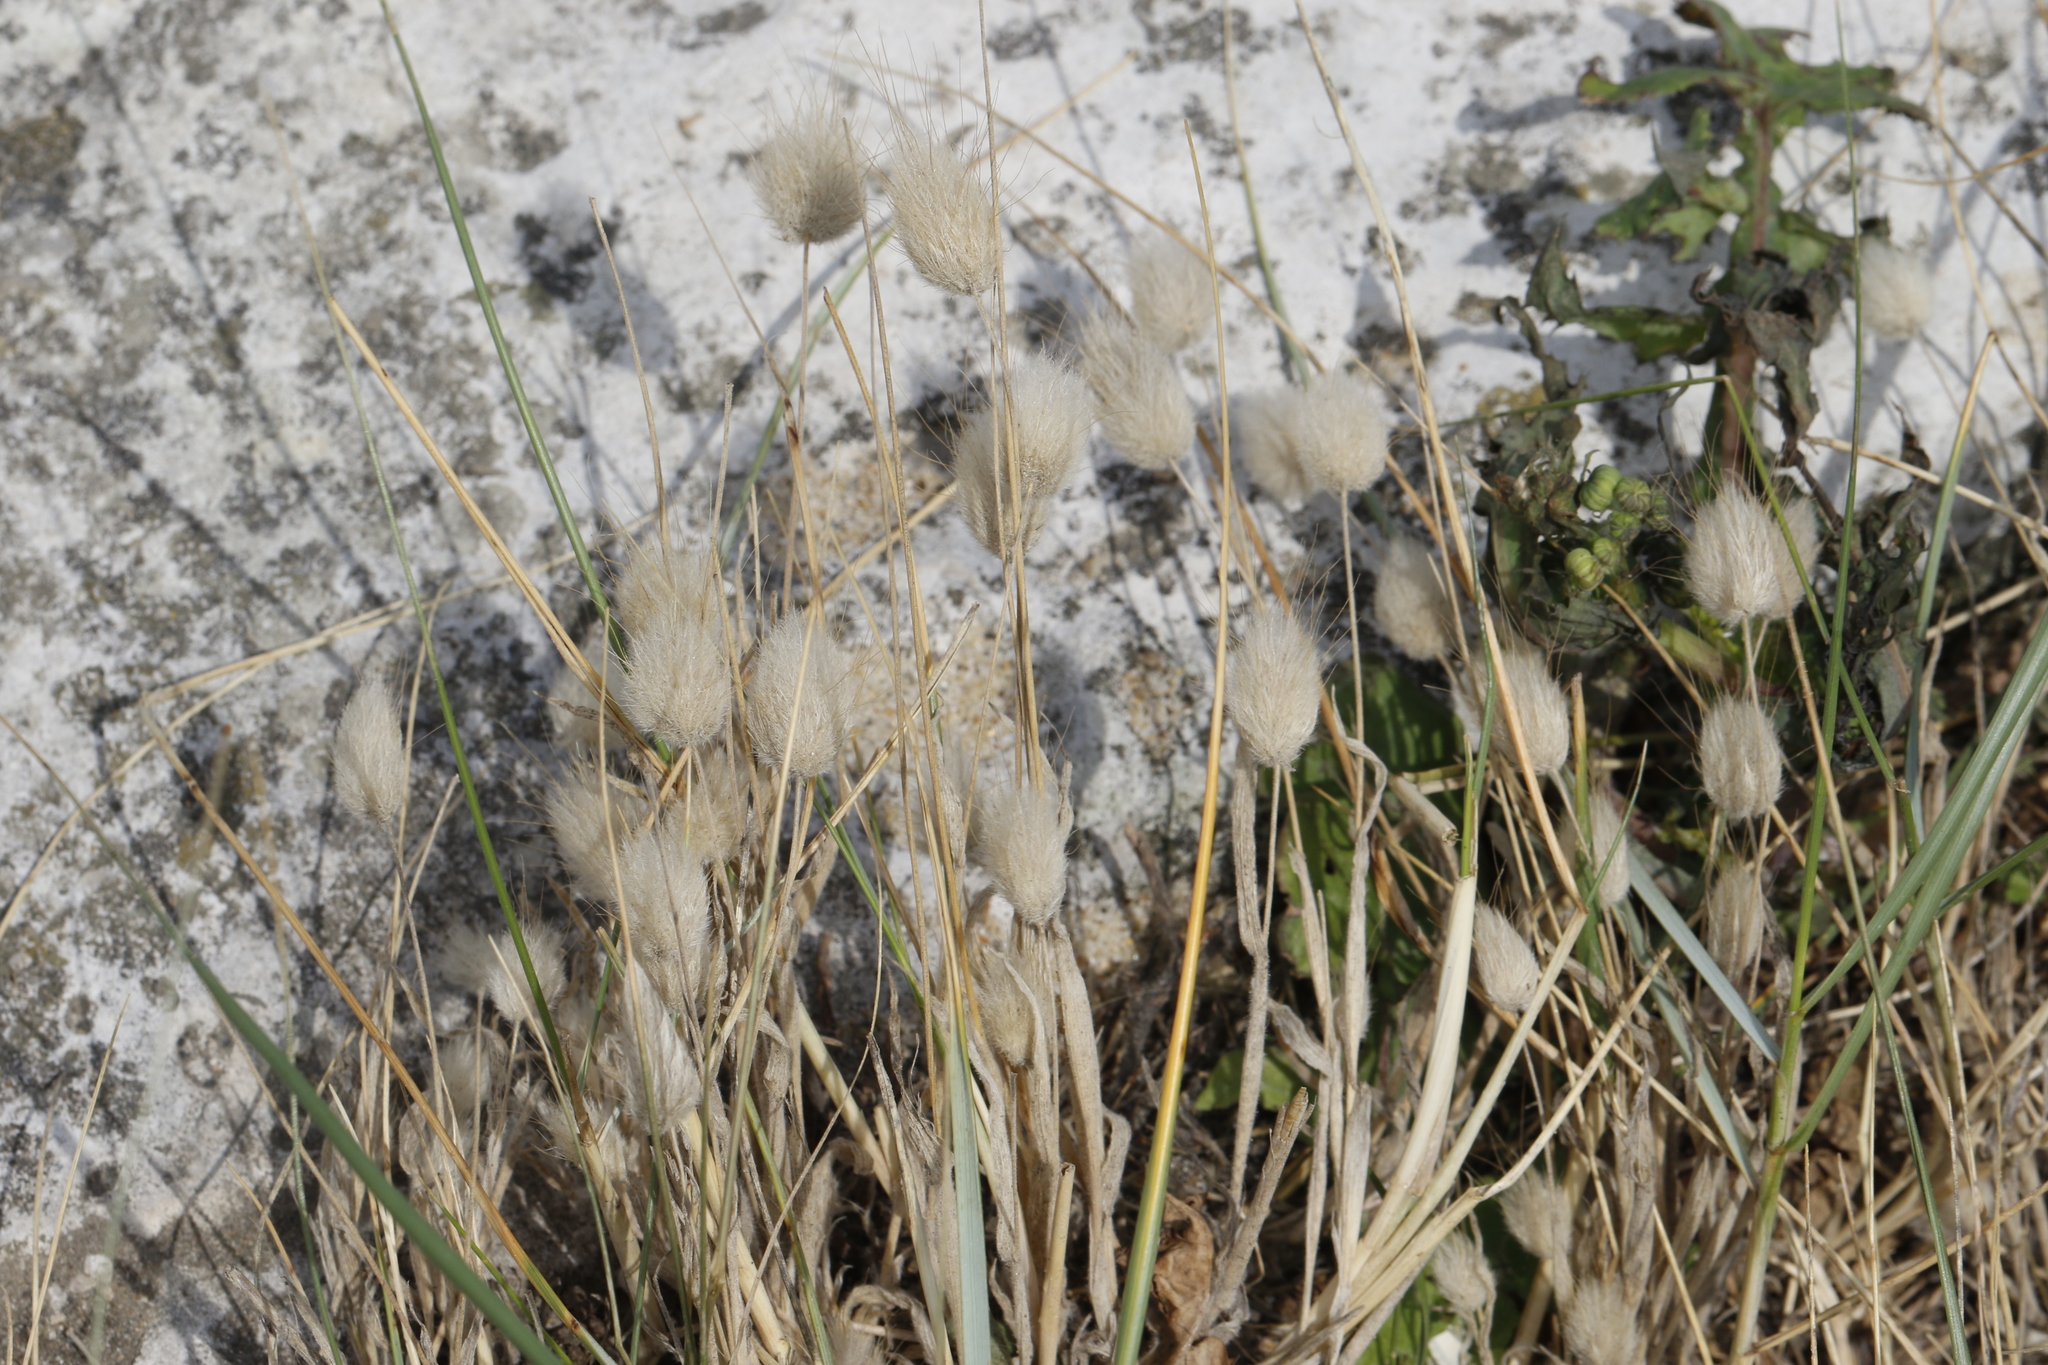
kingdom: Plantae
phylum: Tracheophyta
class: Magnoliopsida
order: Fabales
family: Fabaceae
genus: Trifolium
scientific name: Trifolium arvense
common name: Hare's-foot clover
